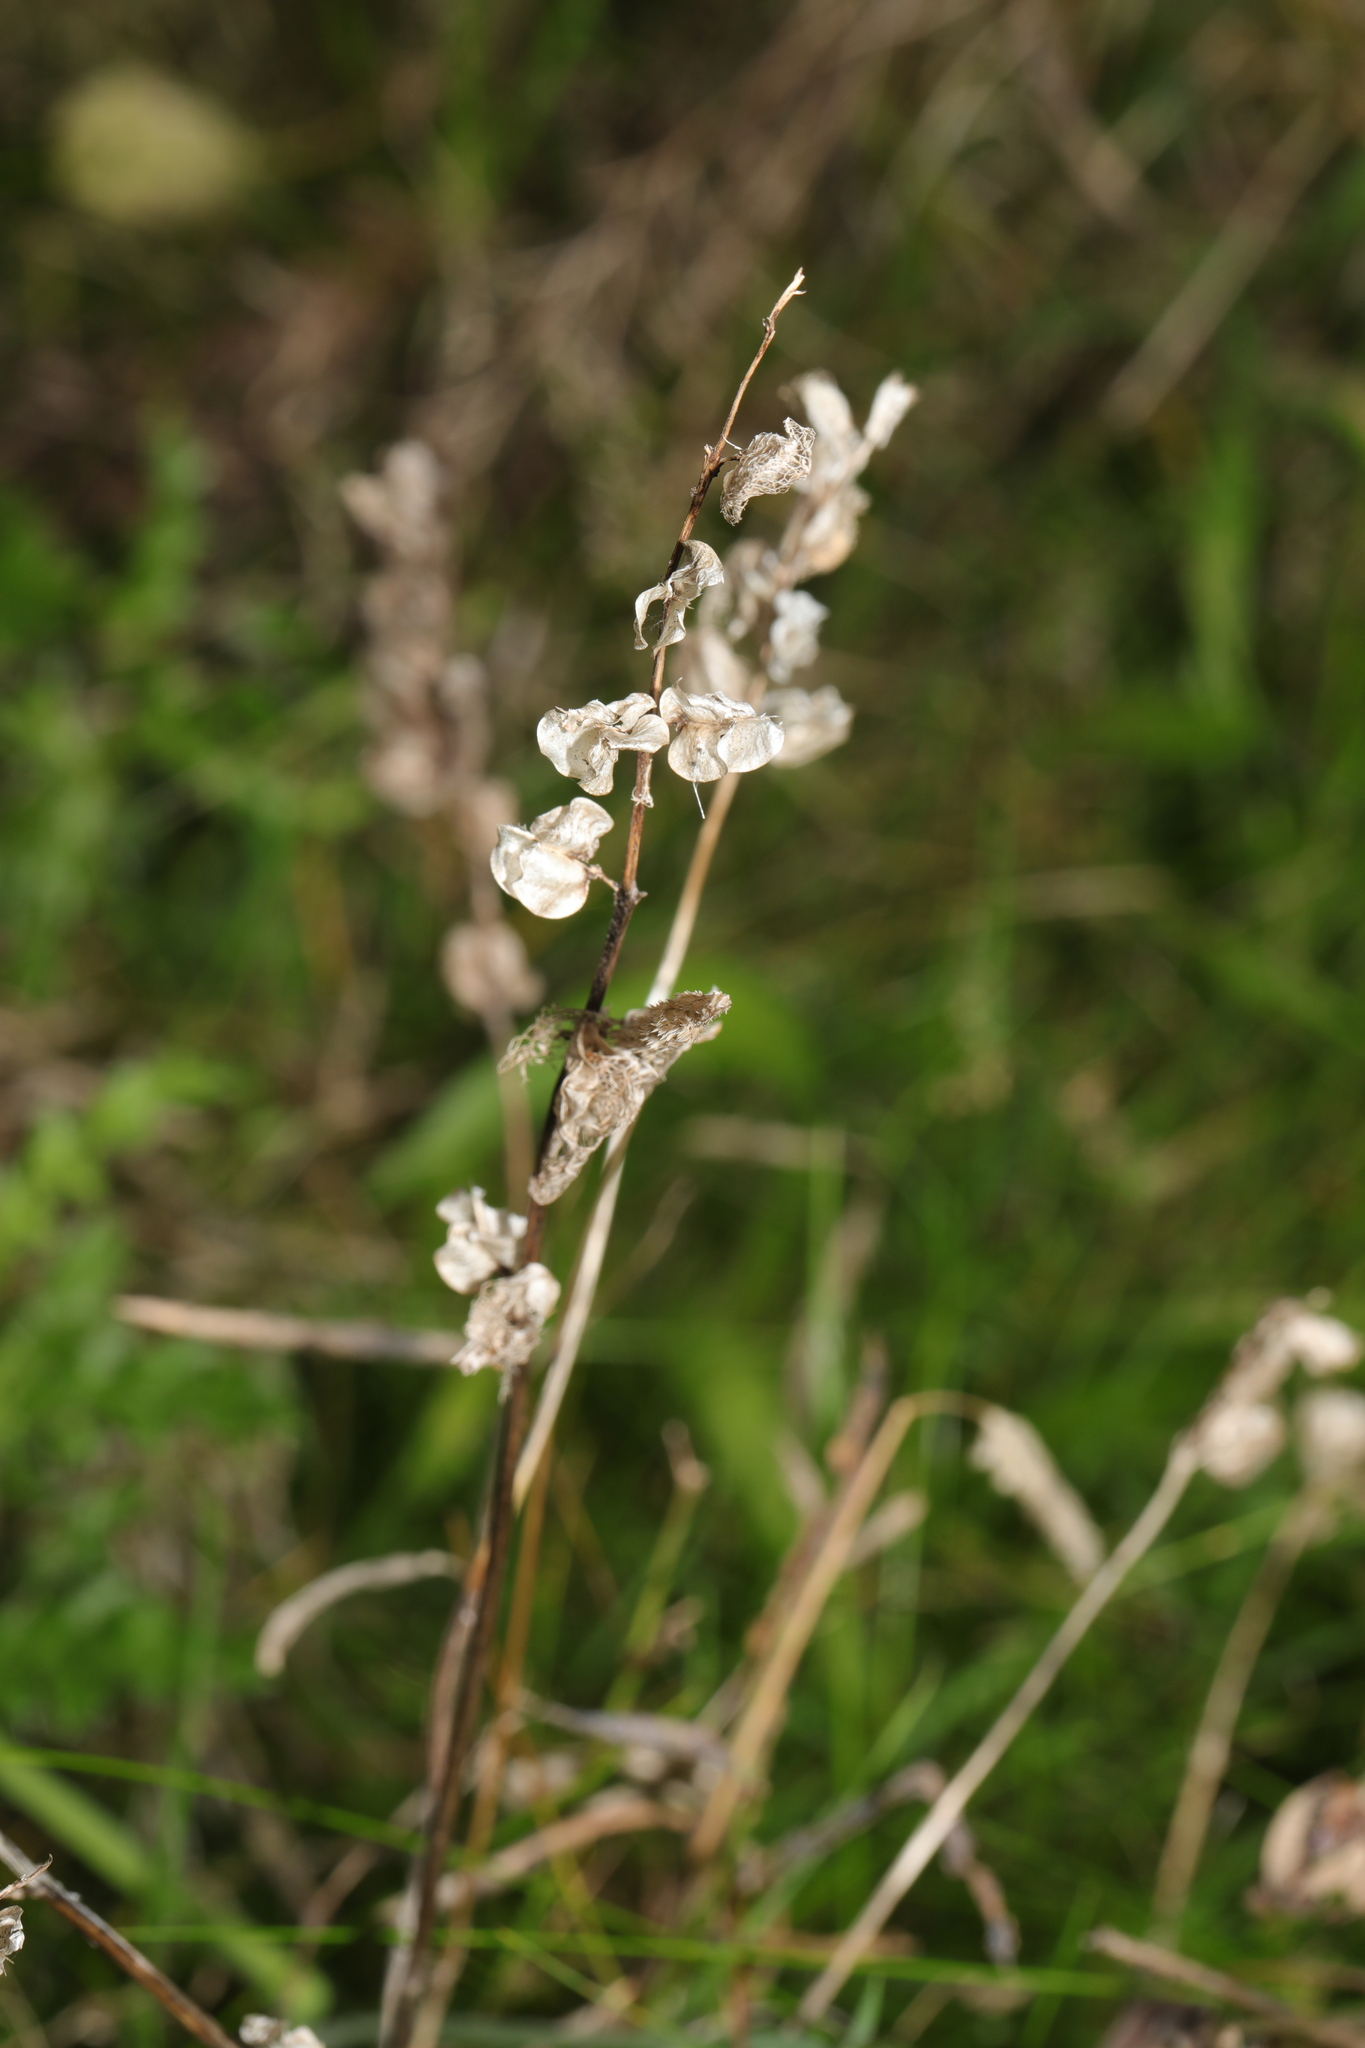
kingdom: Plantae
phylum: Tracheophyta
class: Magnoliopsida
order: Lamiales
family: Orobanchaceae
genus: Rhinanthus
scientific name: Rhinanthus minor
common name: Yellow-rattle
